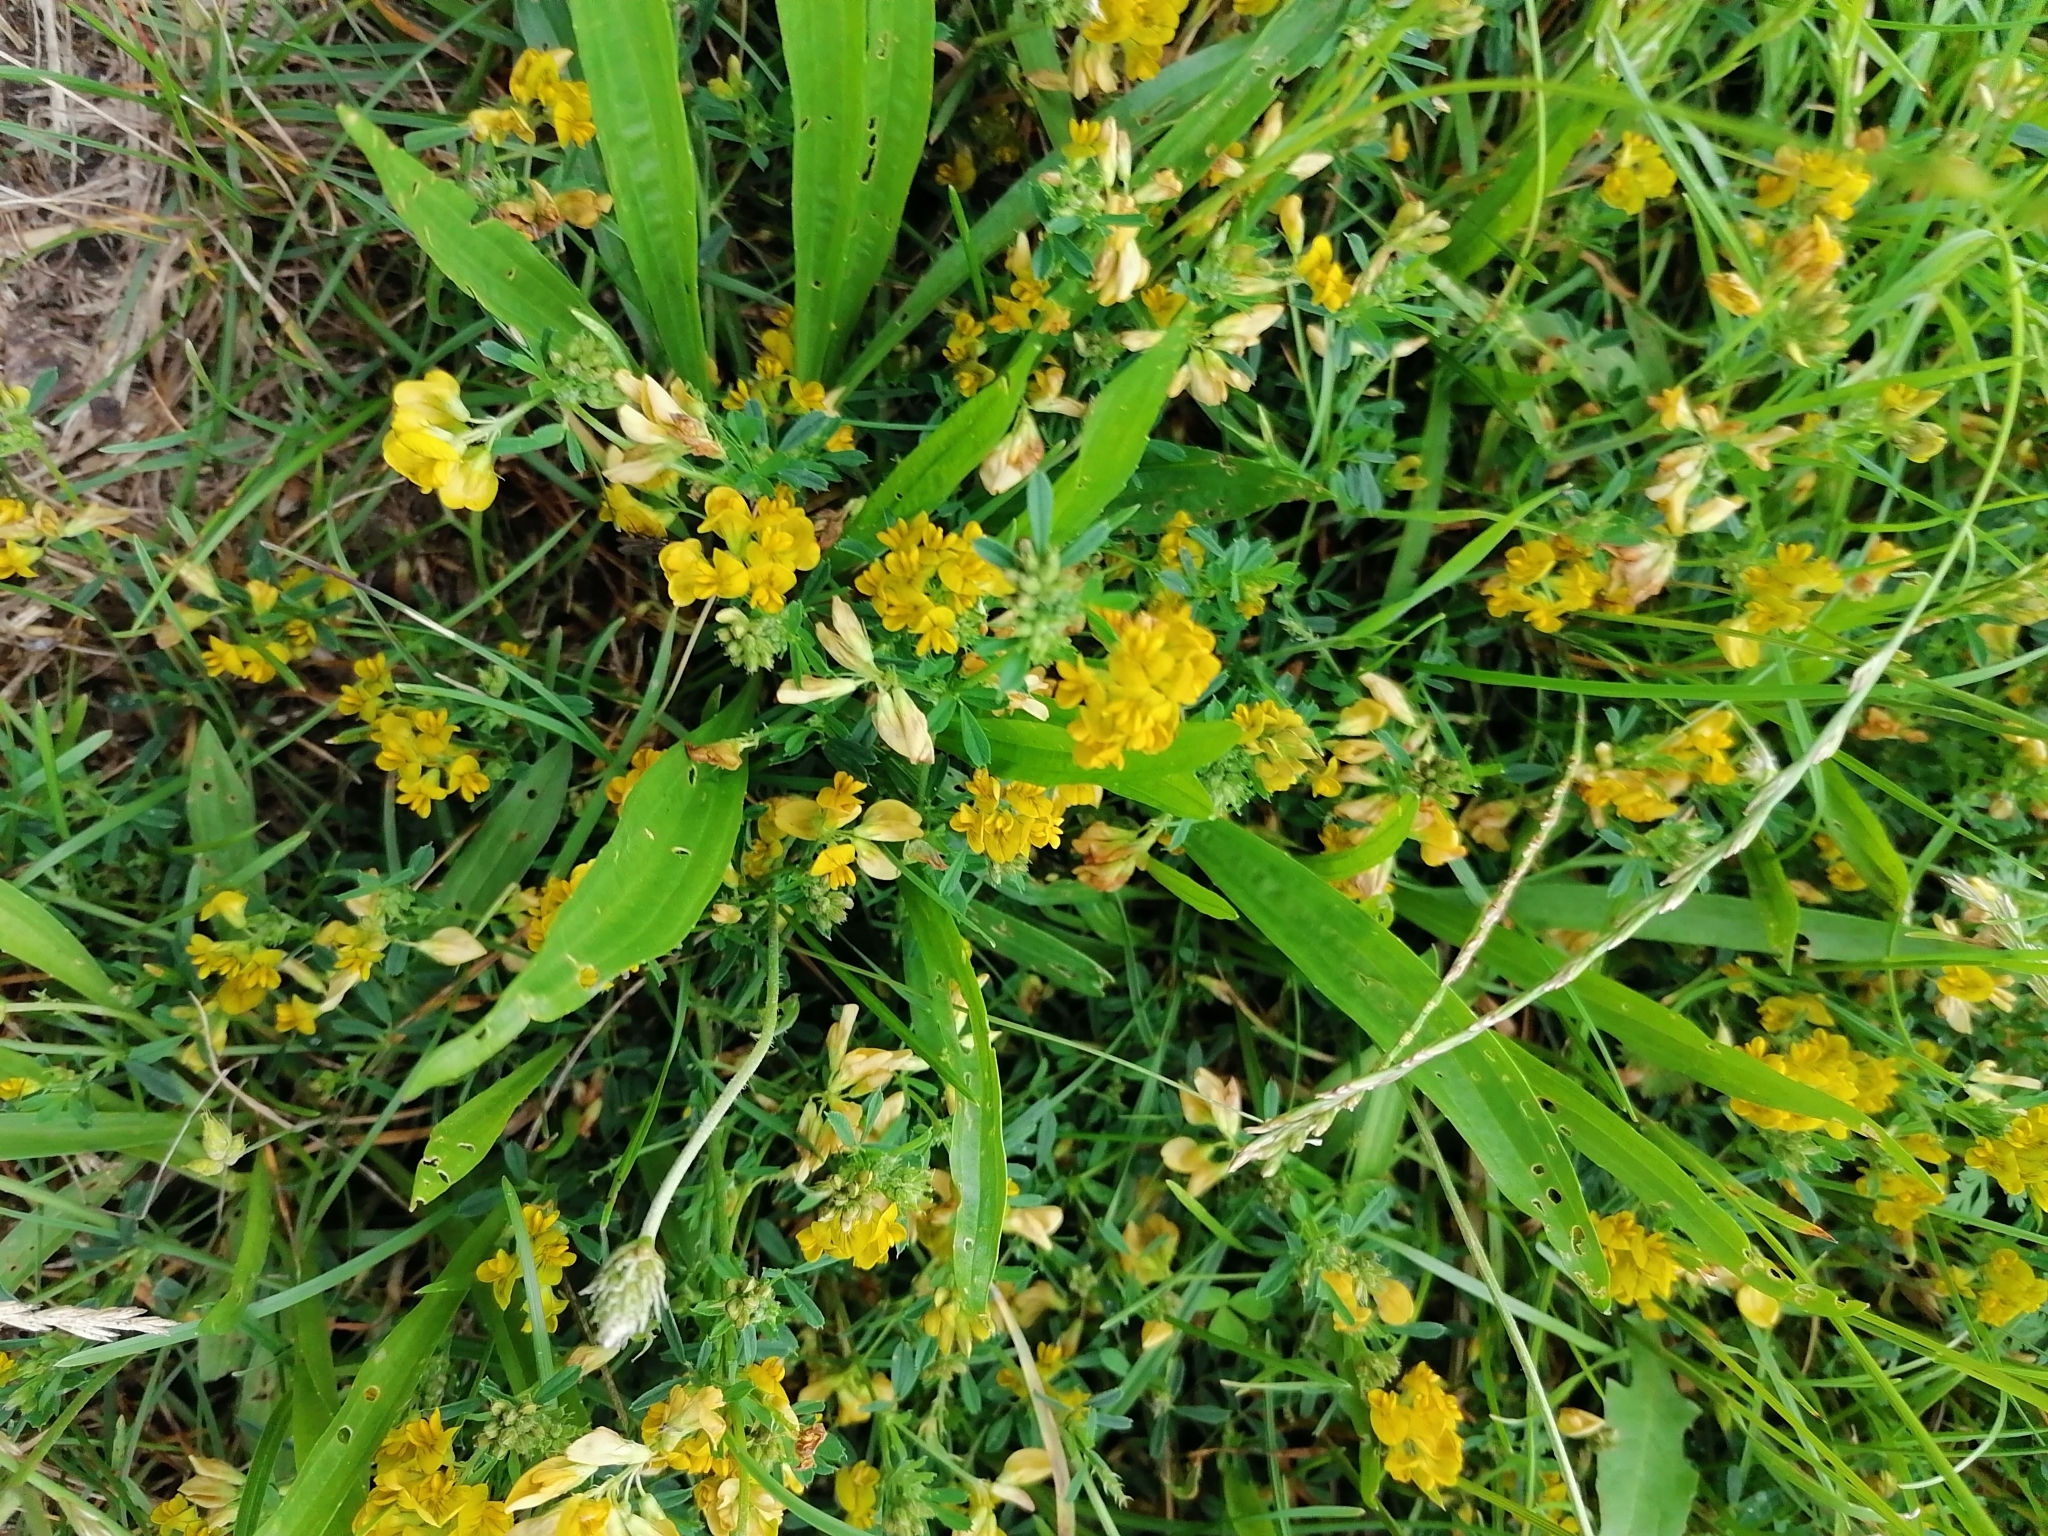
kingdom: Plantae
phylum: Tracheophyta
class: Magnoliopsida
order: Fabales
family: Fabaceae
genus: Medicago
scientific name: Medicago falcata
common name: Sickle medick
